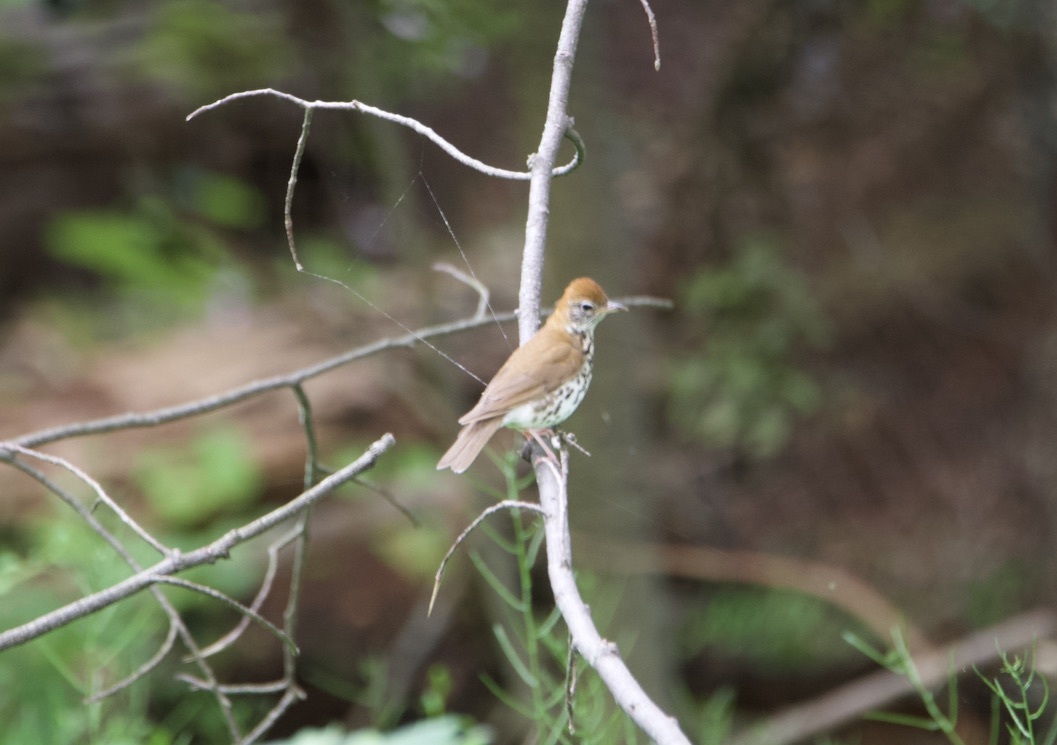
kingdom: Animalia
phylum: Chordata
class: Aves
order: Passeriformes
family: Turdidae
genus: Hylocichla
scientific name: Hylocichla mustelina
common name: Wood thrush
